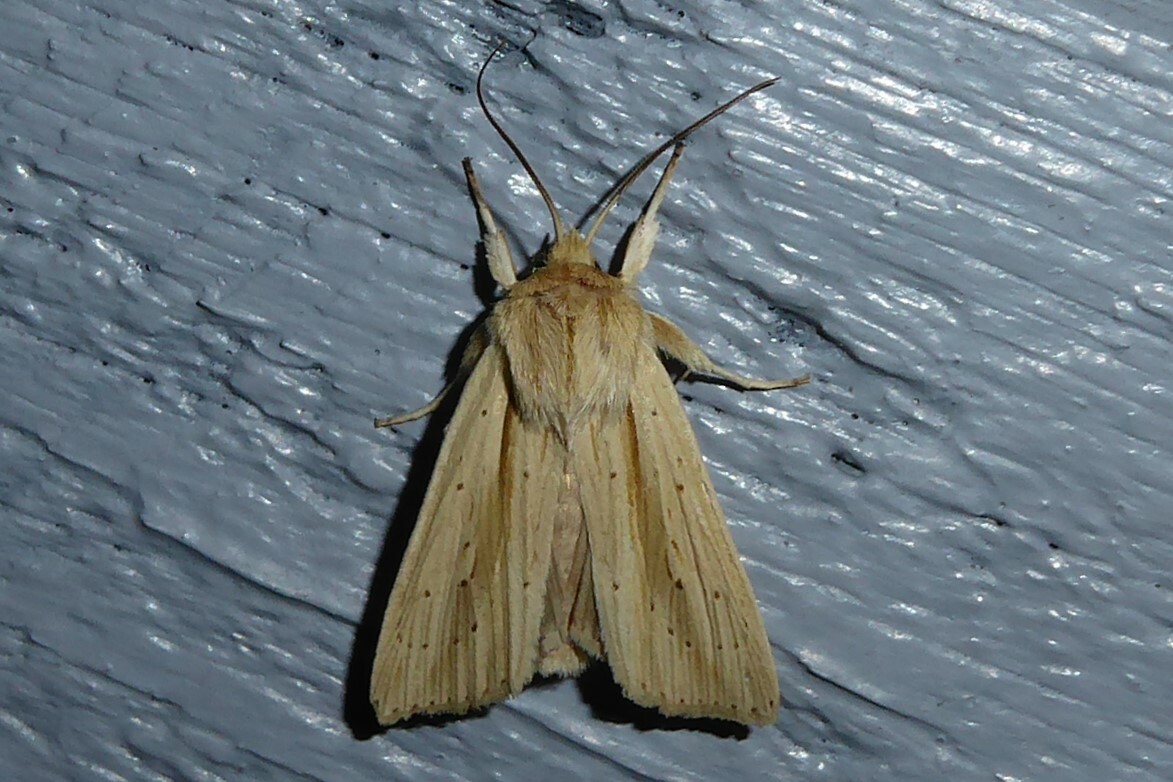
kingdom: Animalia
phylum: Arthropoda
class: Insecta
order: Lepidoptera
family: Noctuidae
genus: Ichneutica
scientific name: Ichneutica semivittata
